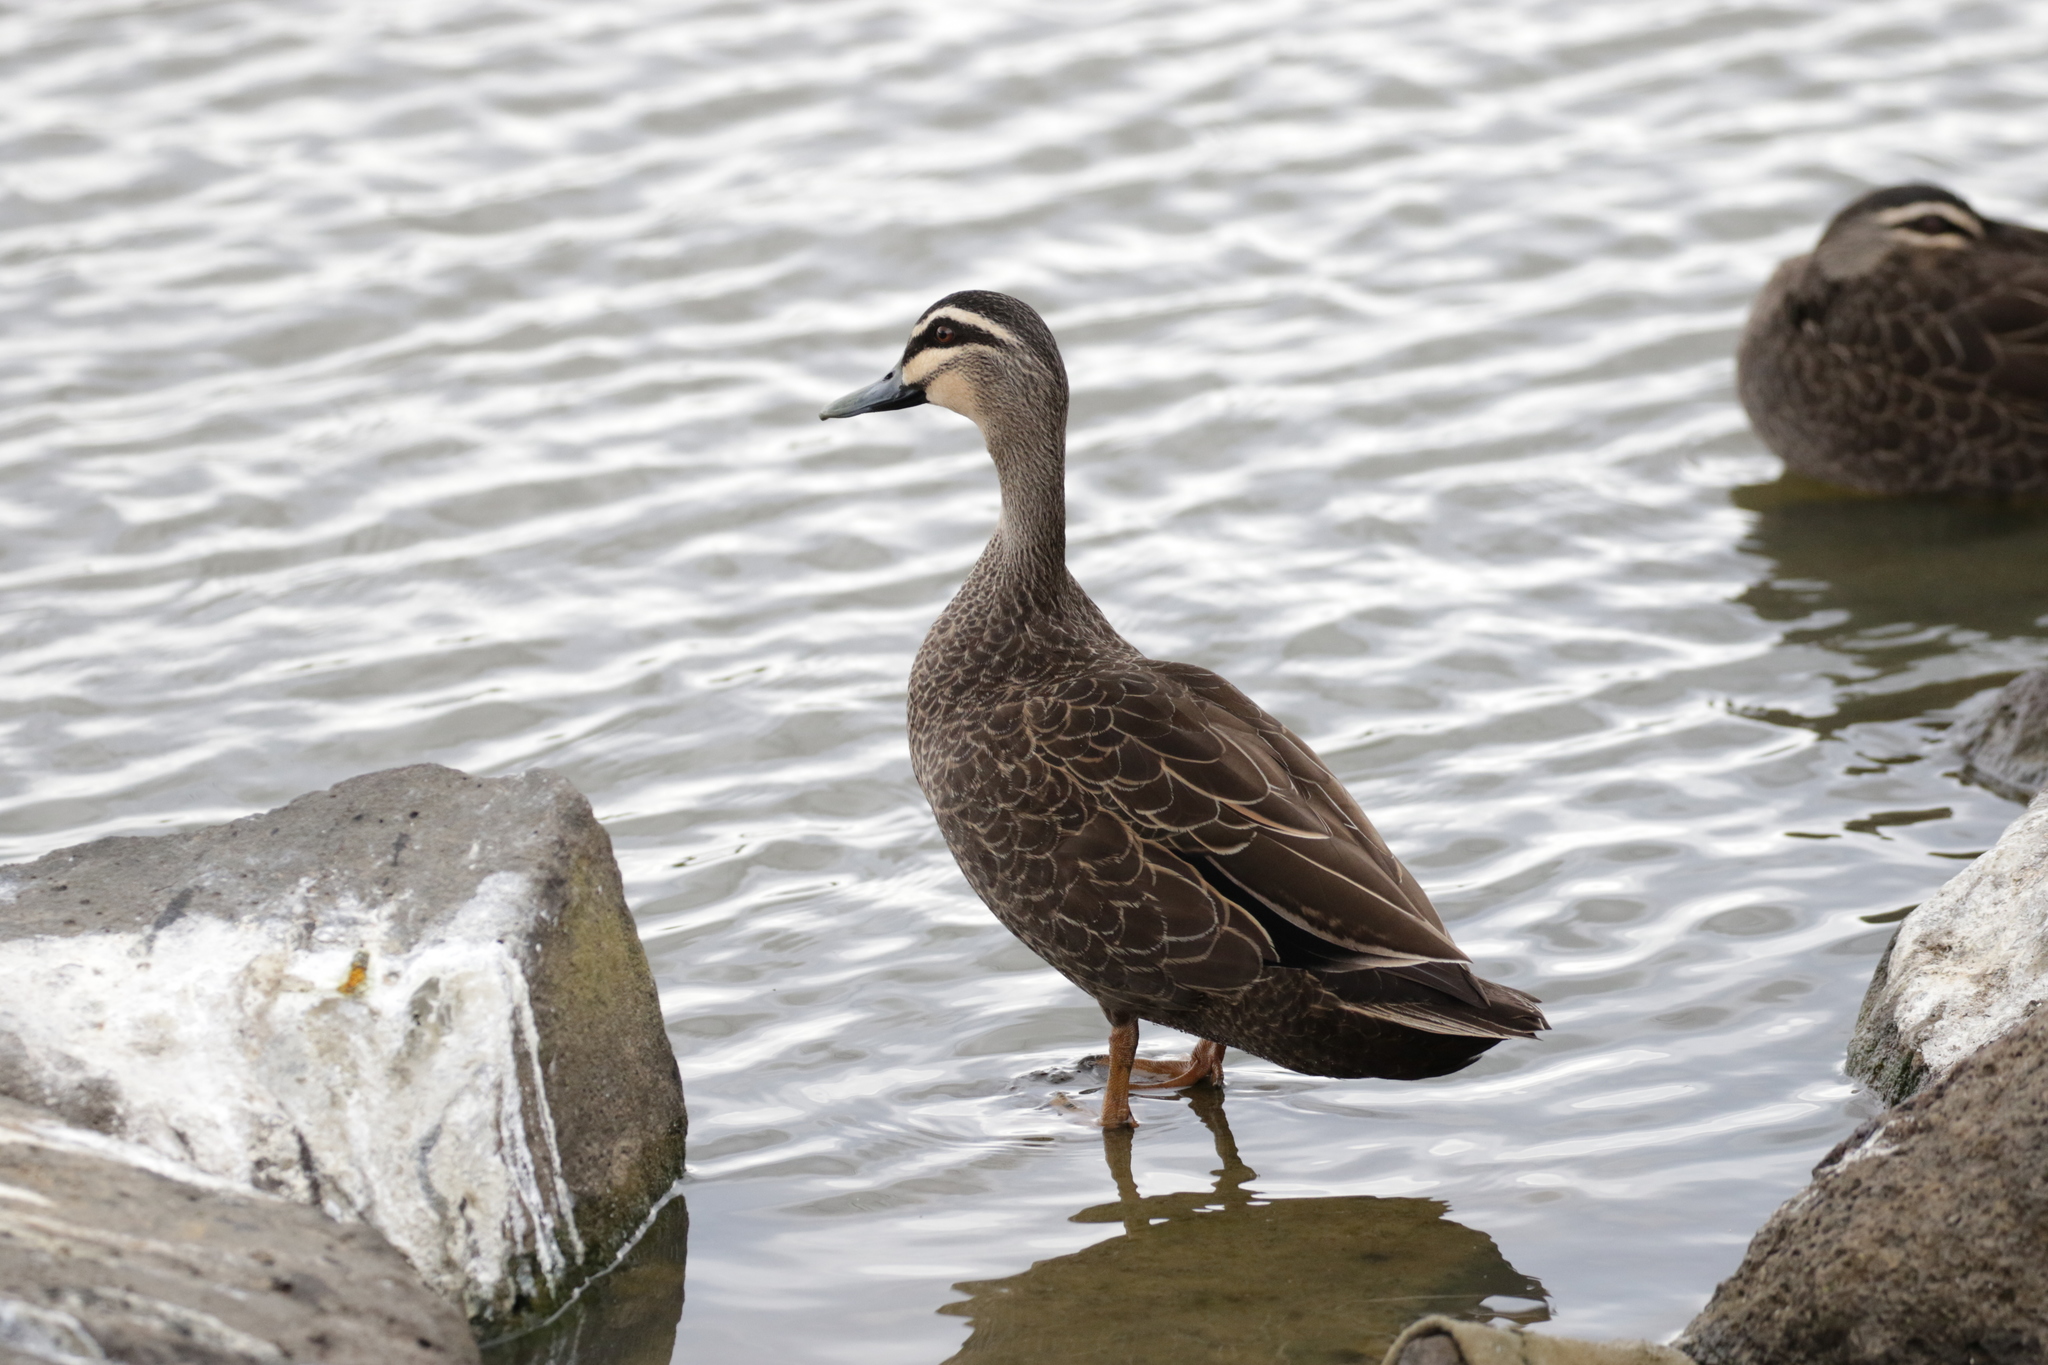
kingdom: Animalia
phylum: Chordata
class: Aves
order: Anseriformes
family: Anatidae
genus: Anas
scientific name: Anas superciliosa
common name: Pacific black duck
